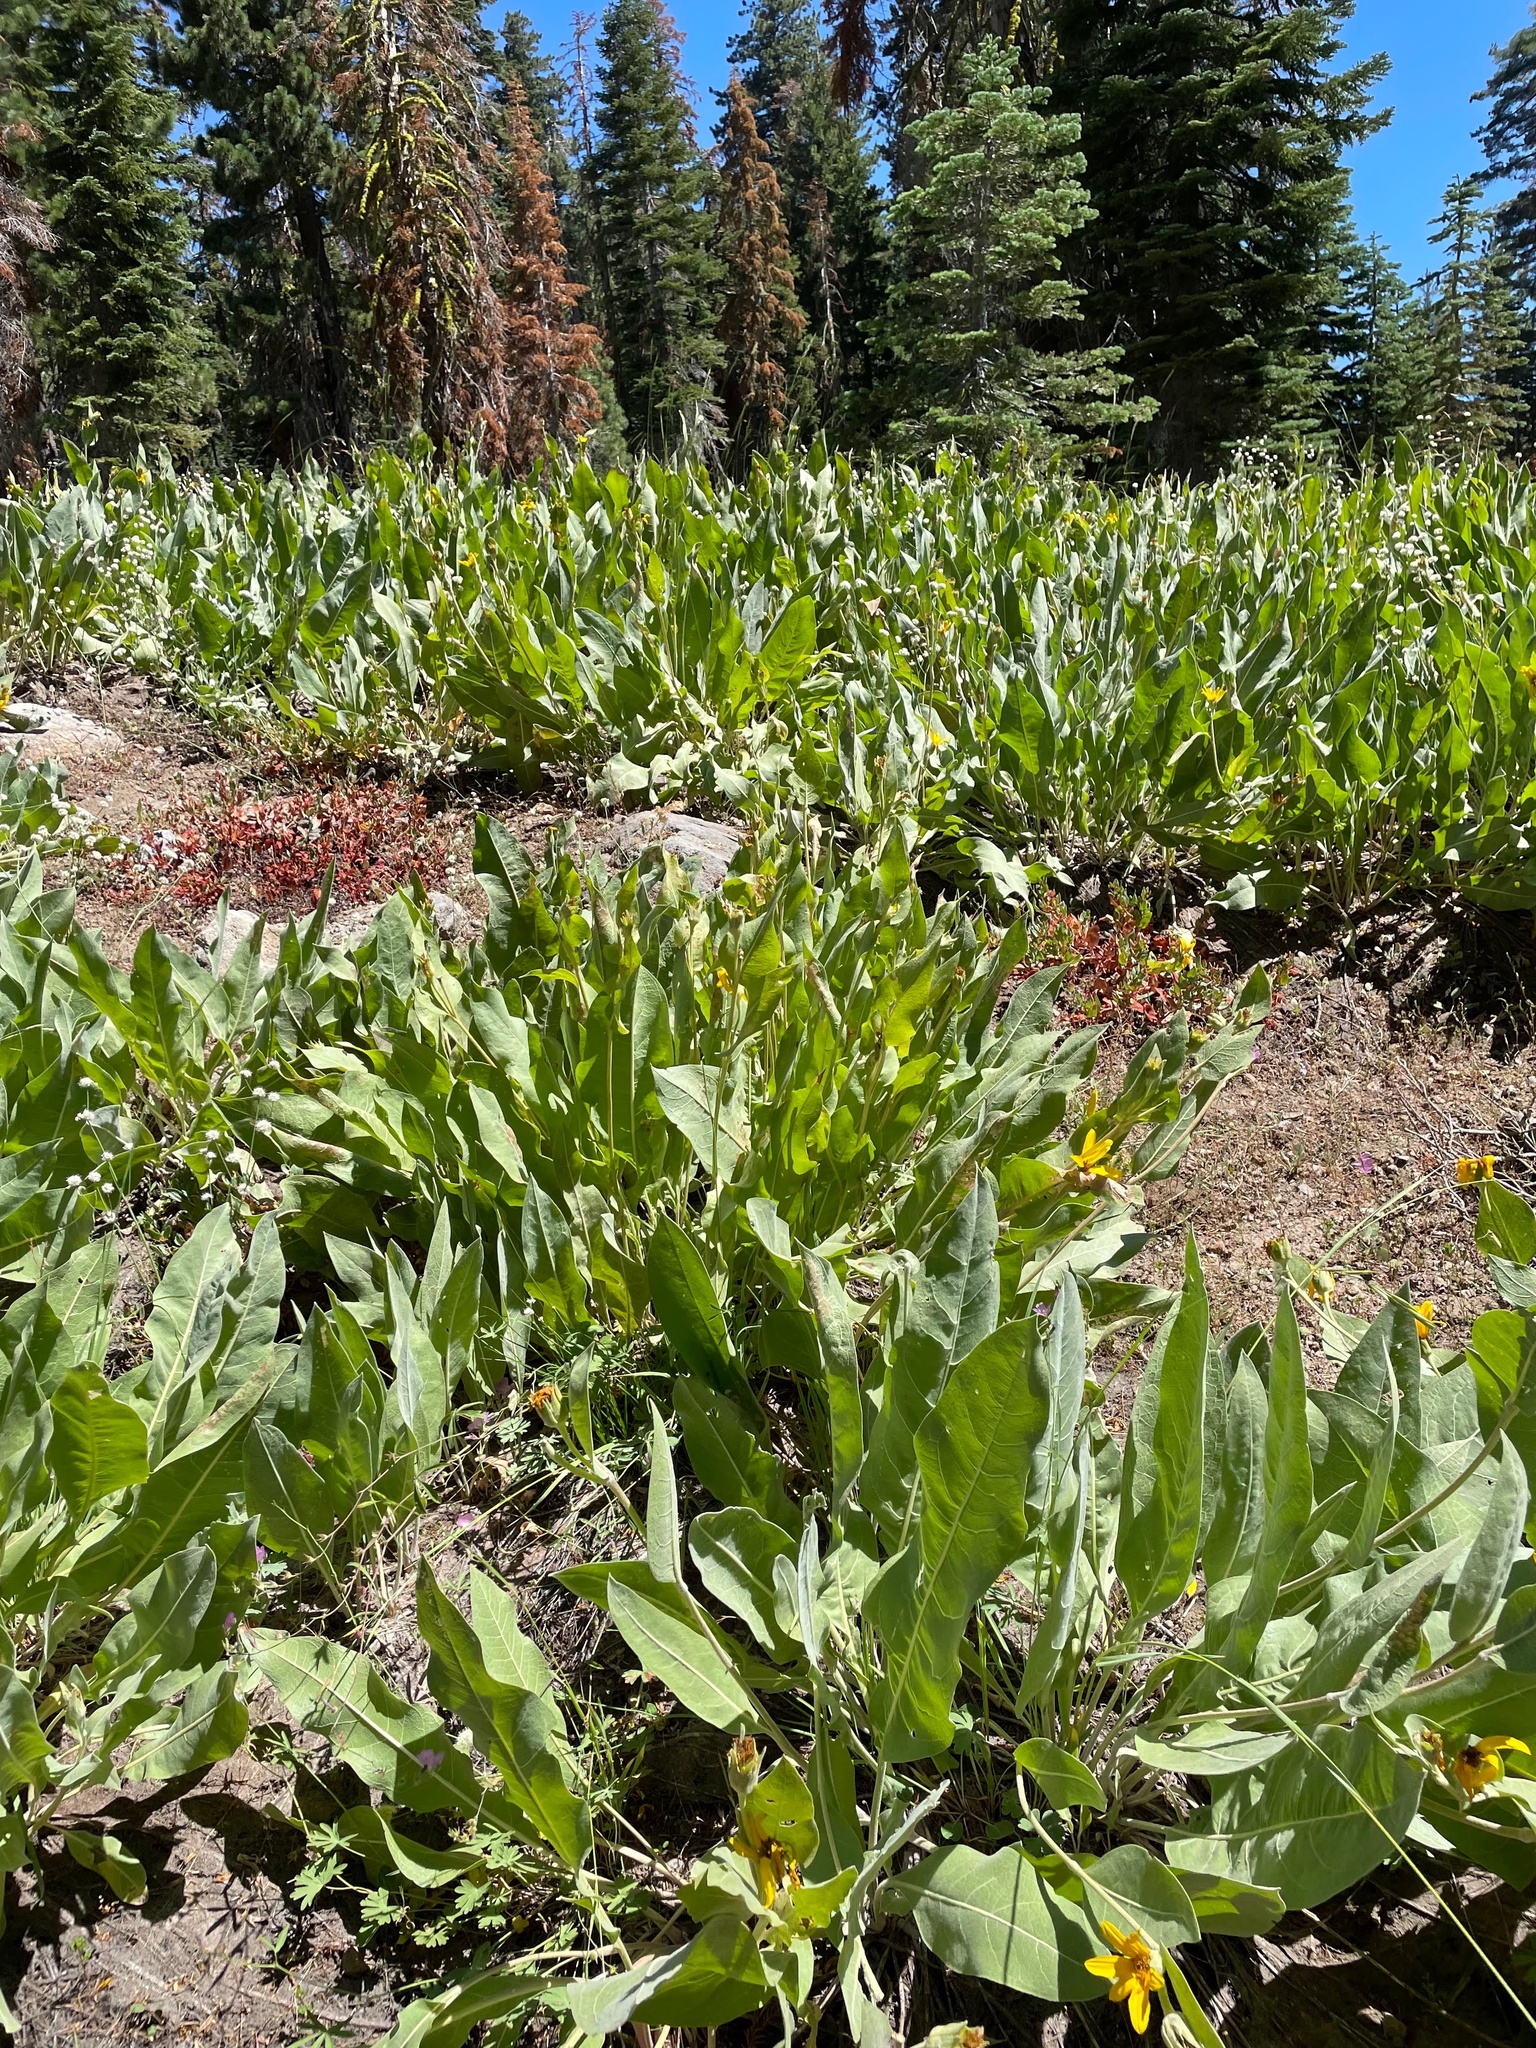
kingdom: Plantae
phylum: Tracheophyta
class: Magnoliopsida
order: Asterales
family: Asteraceae
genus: Wyethia
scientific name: Wyethia mollis
